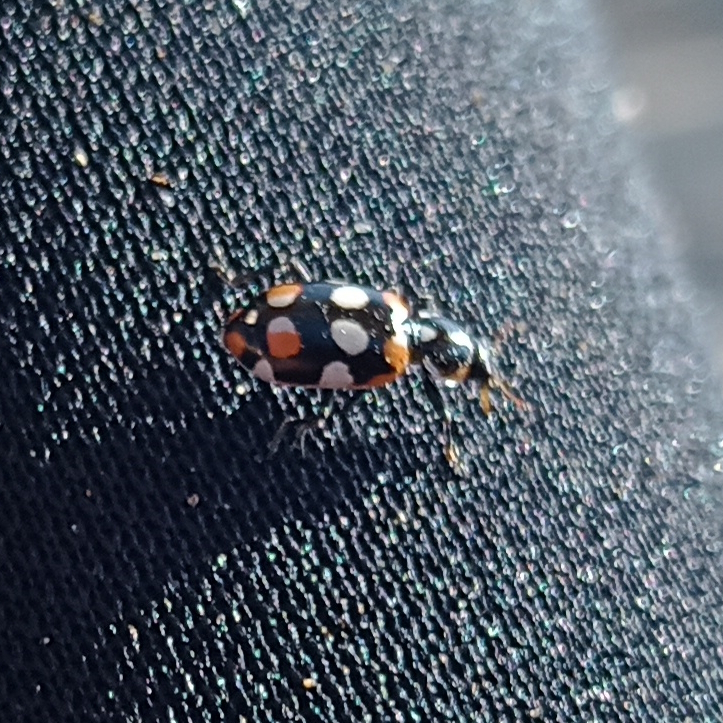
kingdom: Animalia
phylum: Arthropoda
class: Insecta
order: Coleoptera
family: Coccinellidae
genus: Eriopis
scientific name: Eriopis connexa
